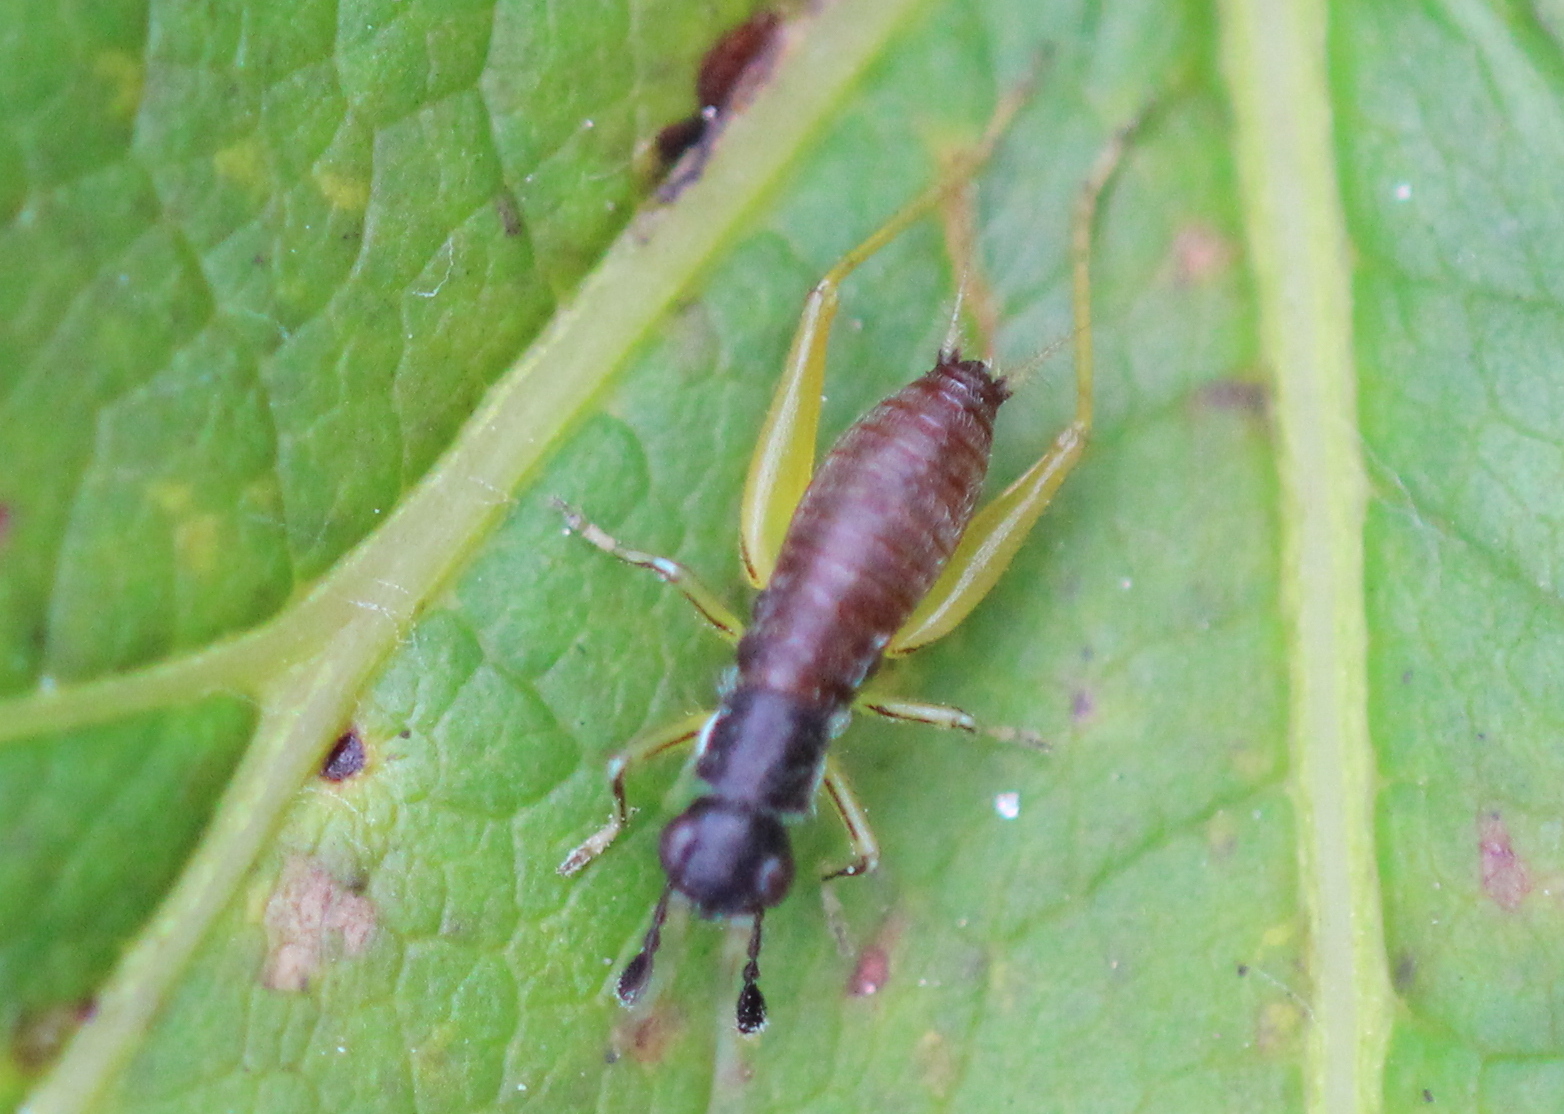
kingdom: Animalia
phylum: Arthropoda
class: Insecta
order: Orthoptera
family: Trigonidiidae
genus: Phyllopalpus
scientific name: Phyllopalpus pulchellus
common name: Handsome trig
